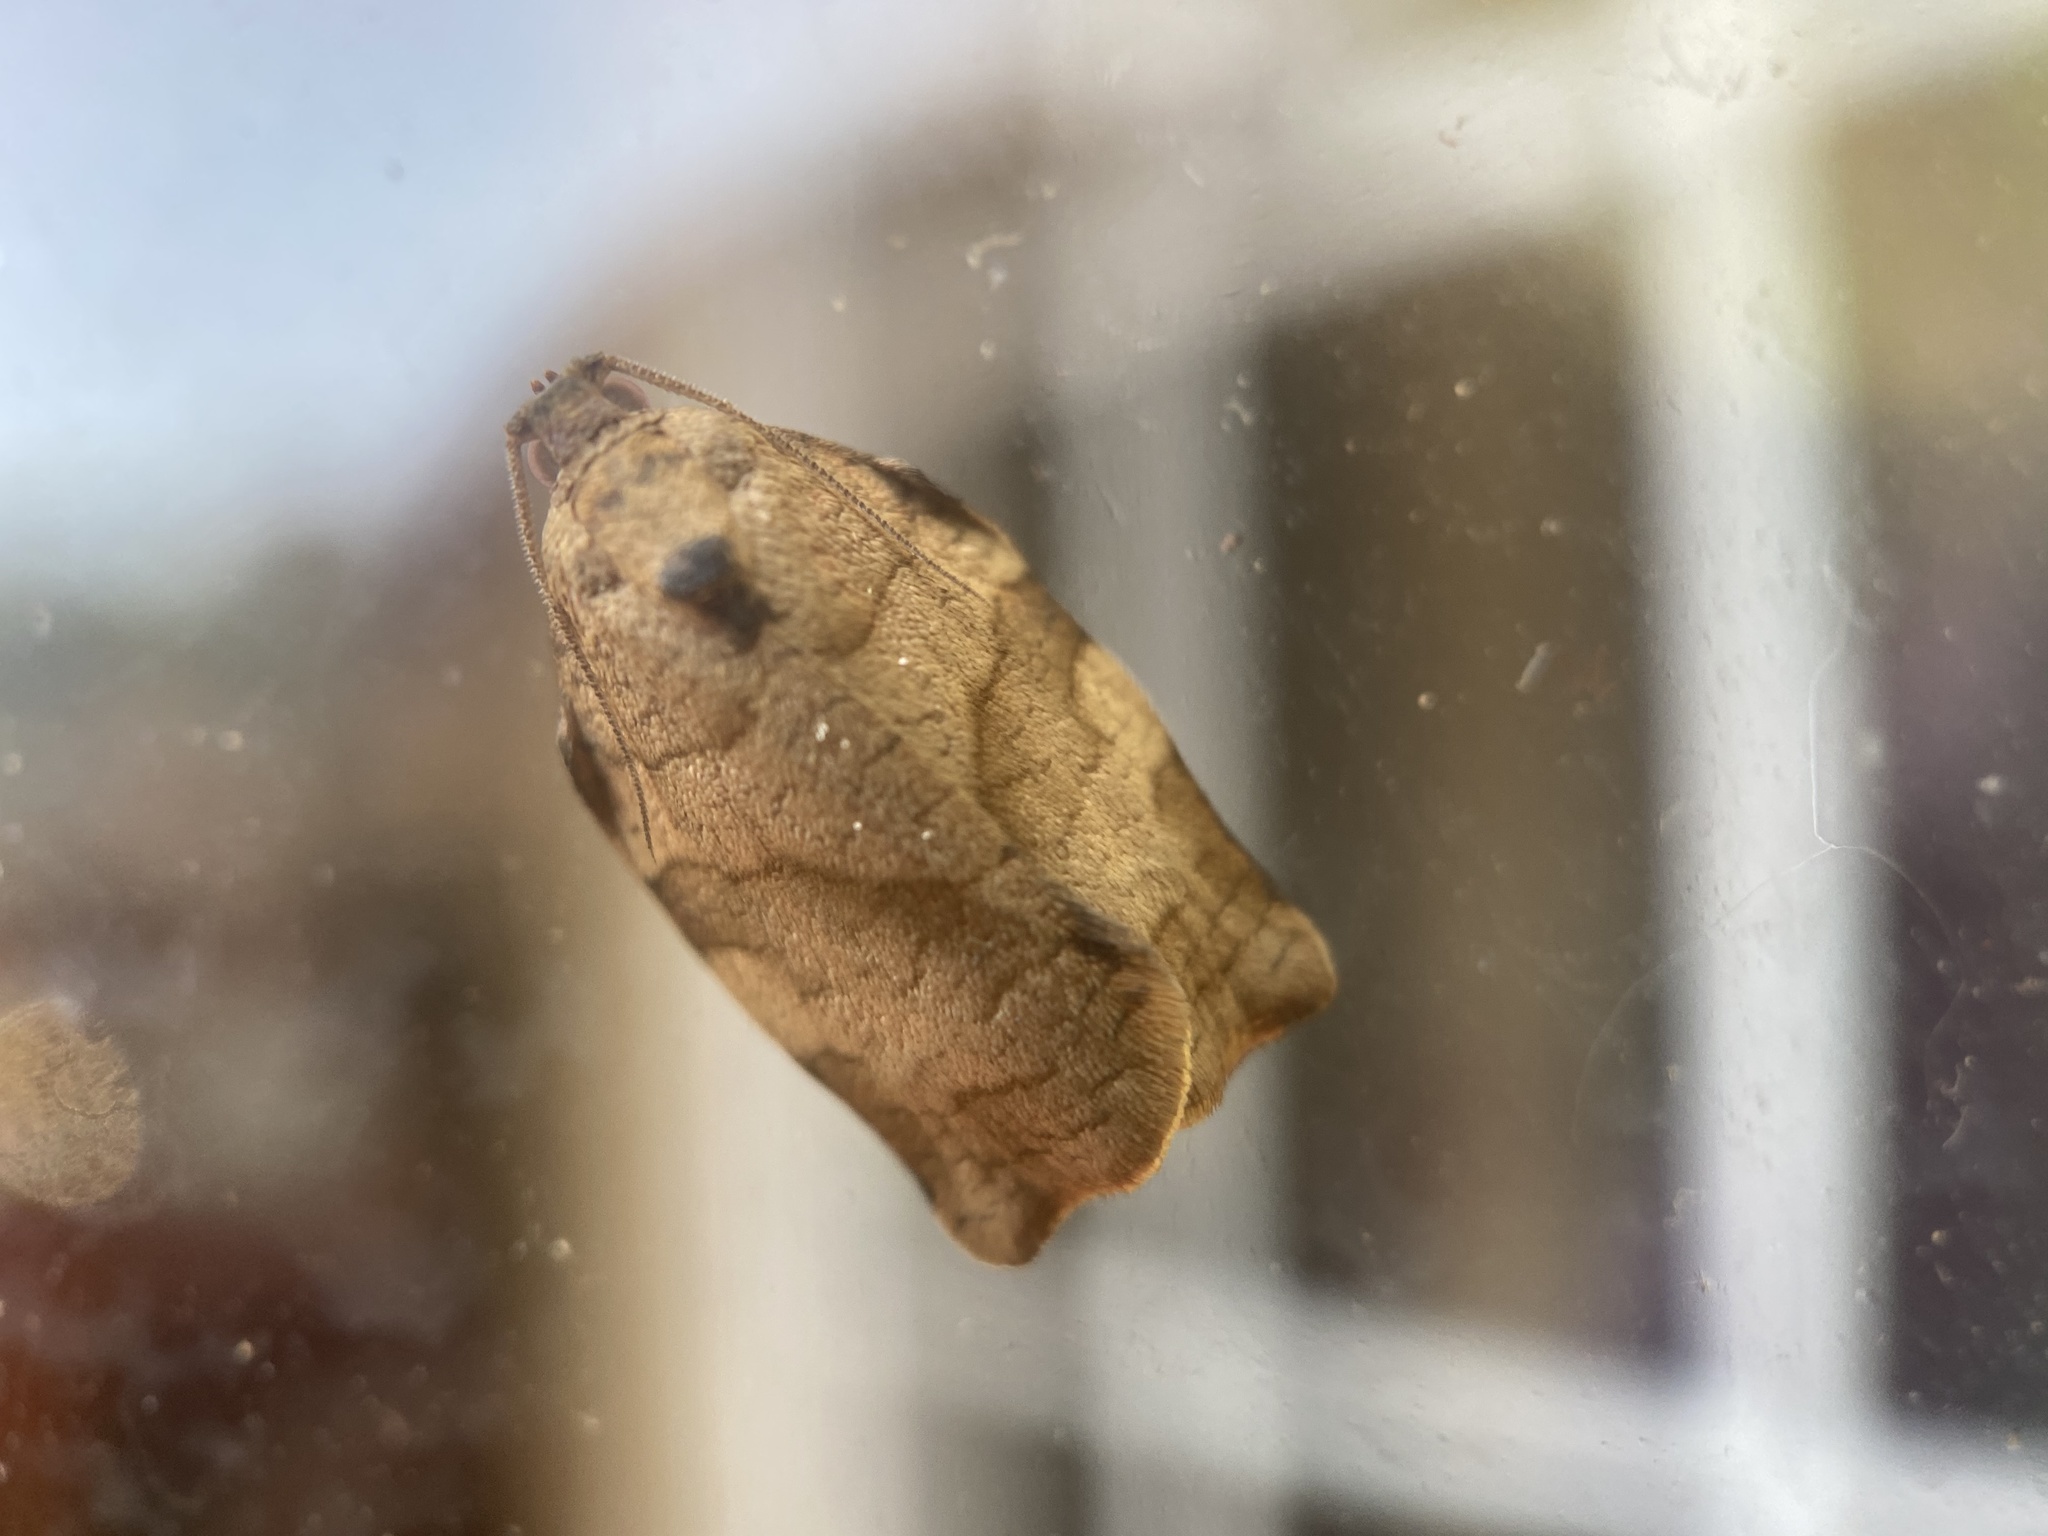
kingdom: Animalia
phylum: Arthropoda
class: Insecta
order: Lepidoptera
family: Tortricidae
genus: Choristoneura
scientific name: Choristoneura rosaceana
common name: Oblique-banded leafroller moth
